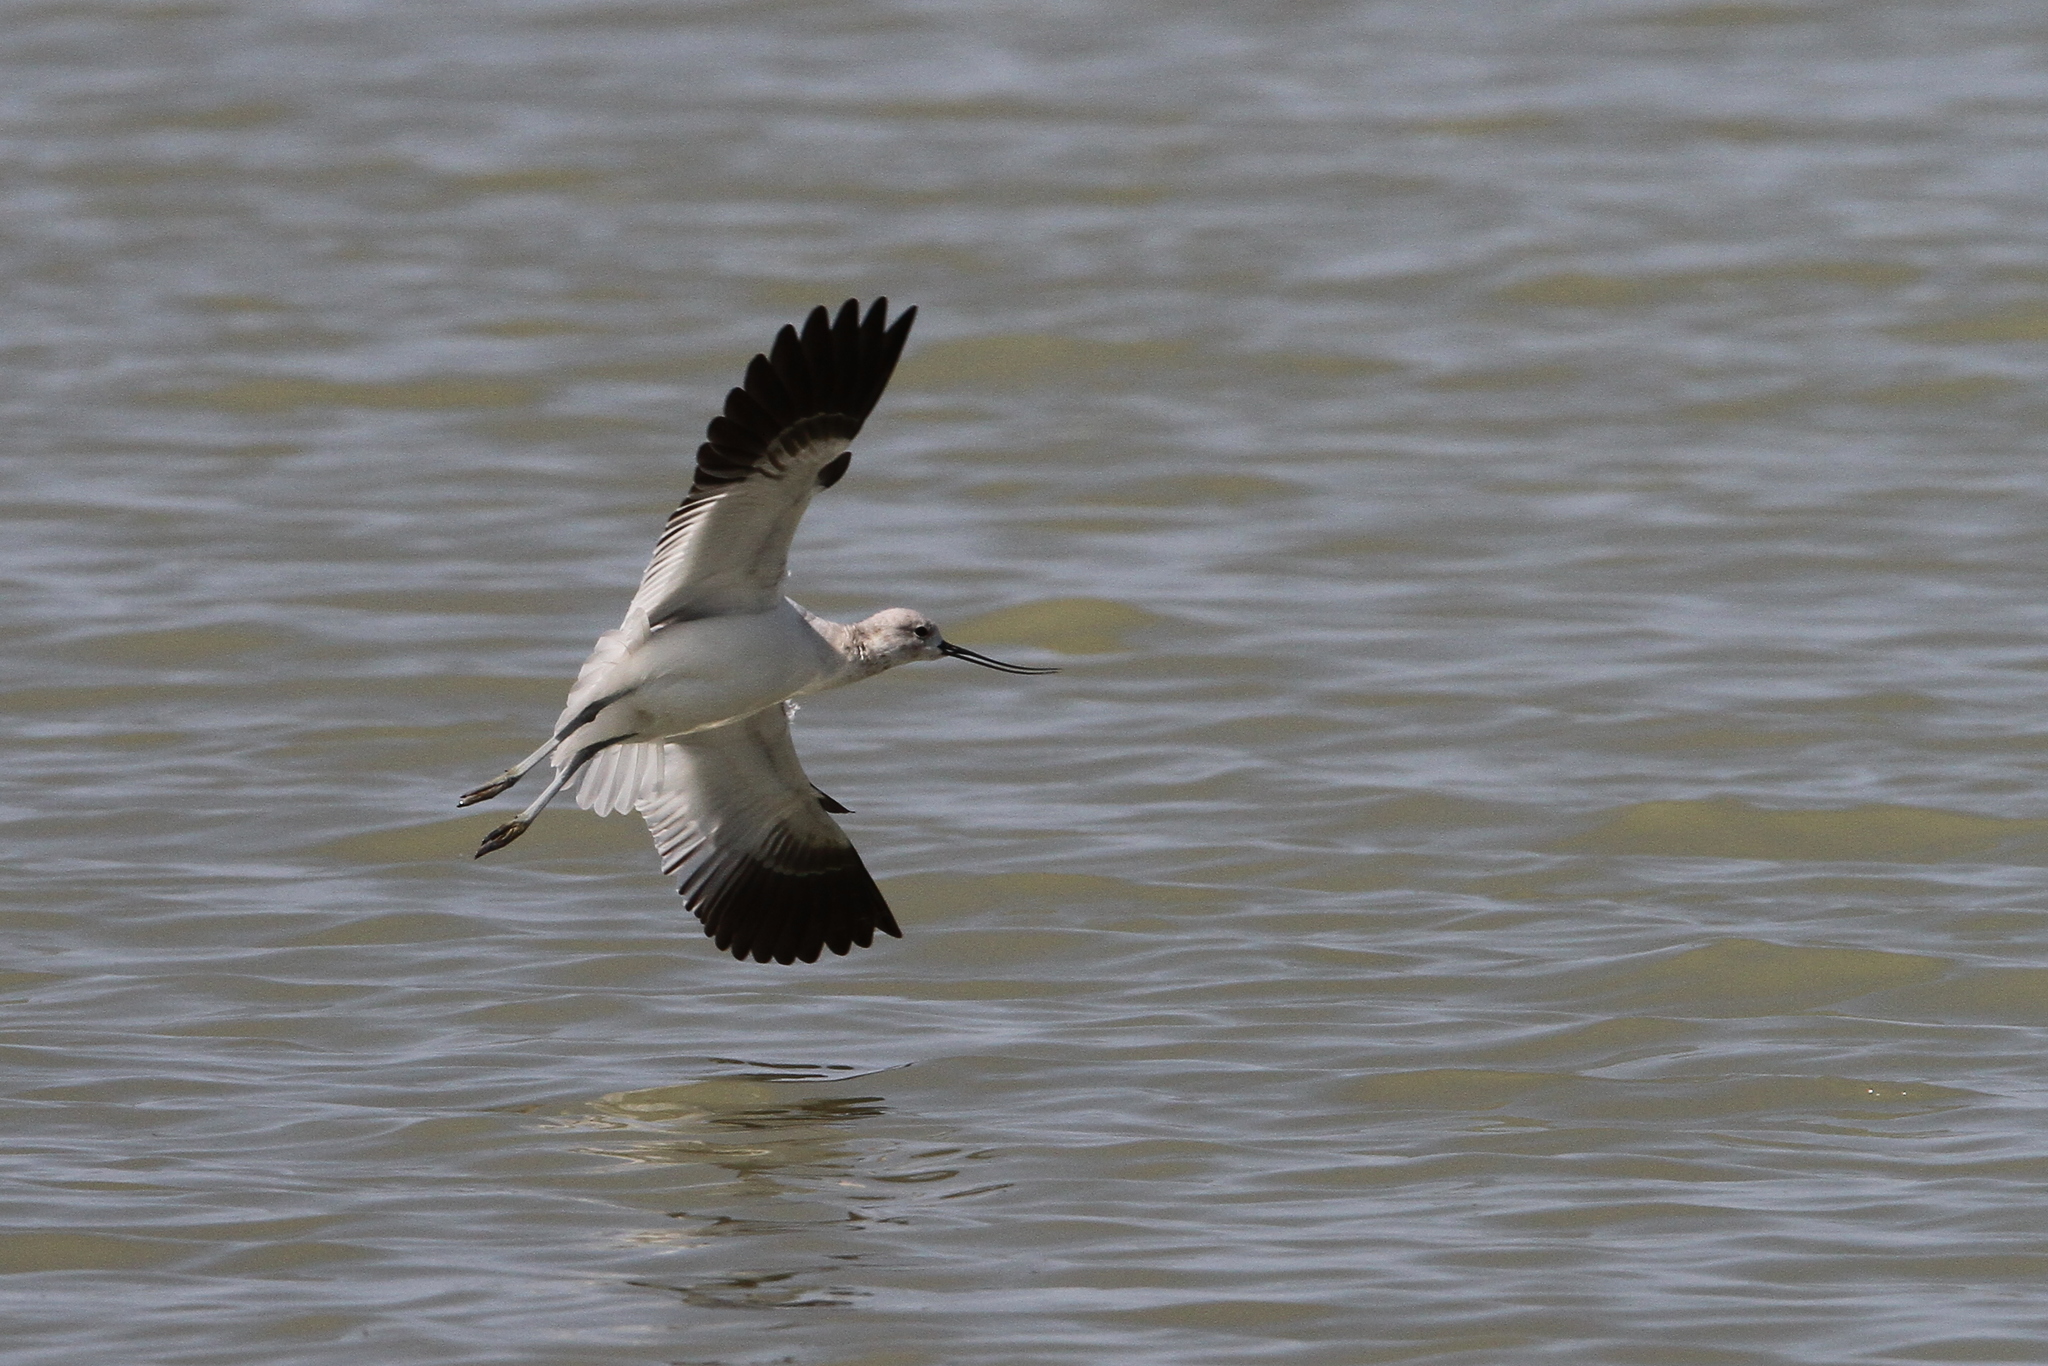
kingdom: Animalia
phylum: Chordata
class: Aves
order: Charadriiformes
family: Recurvirostridae
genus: Recurvirostra
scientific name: Recurvirostra americana
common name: American avocet
